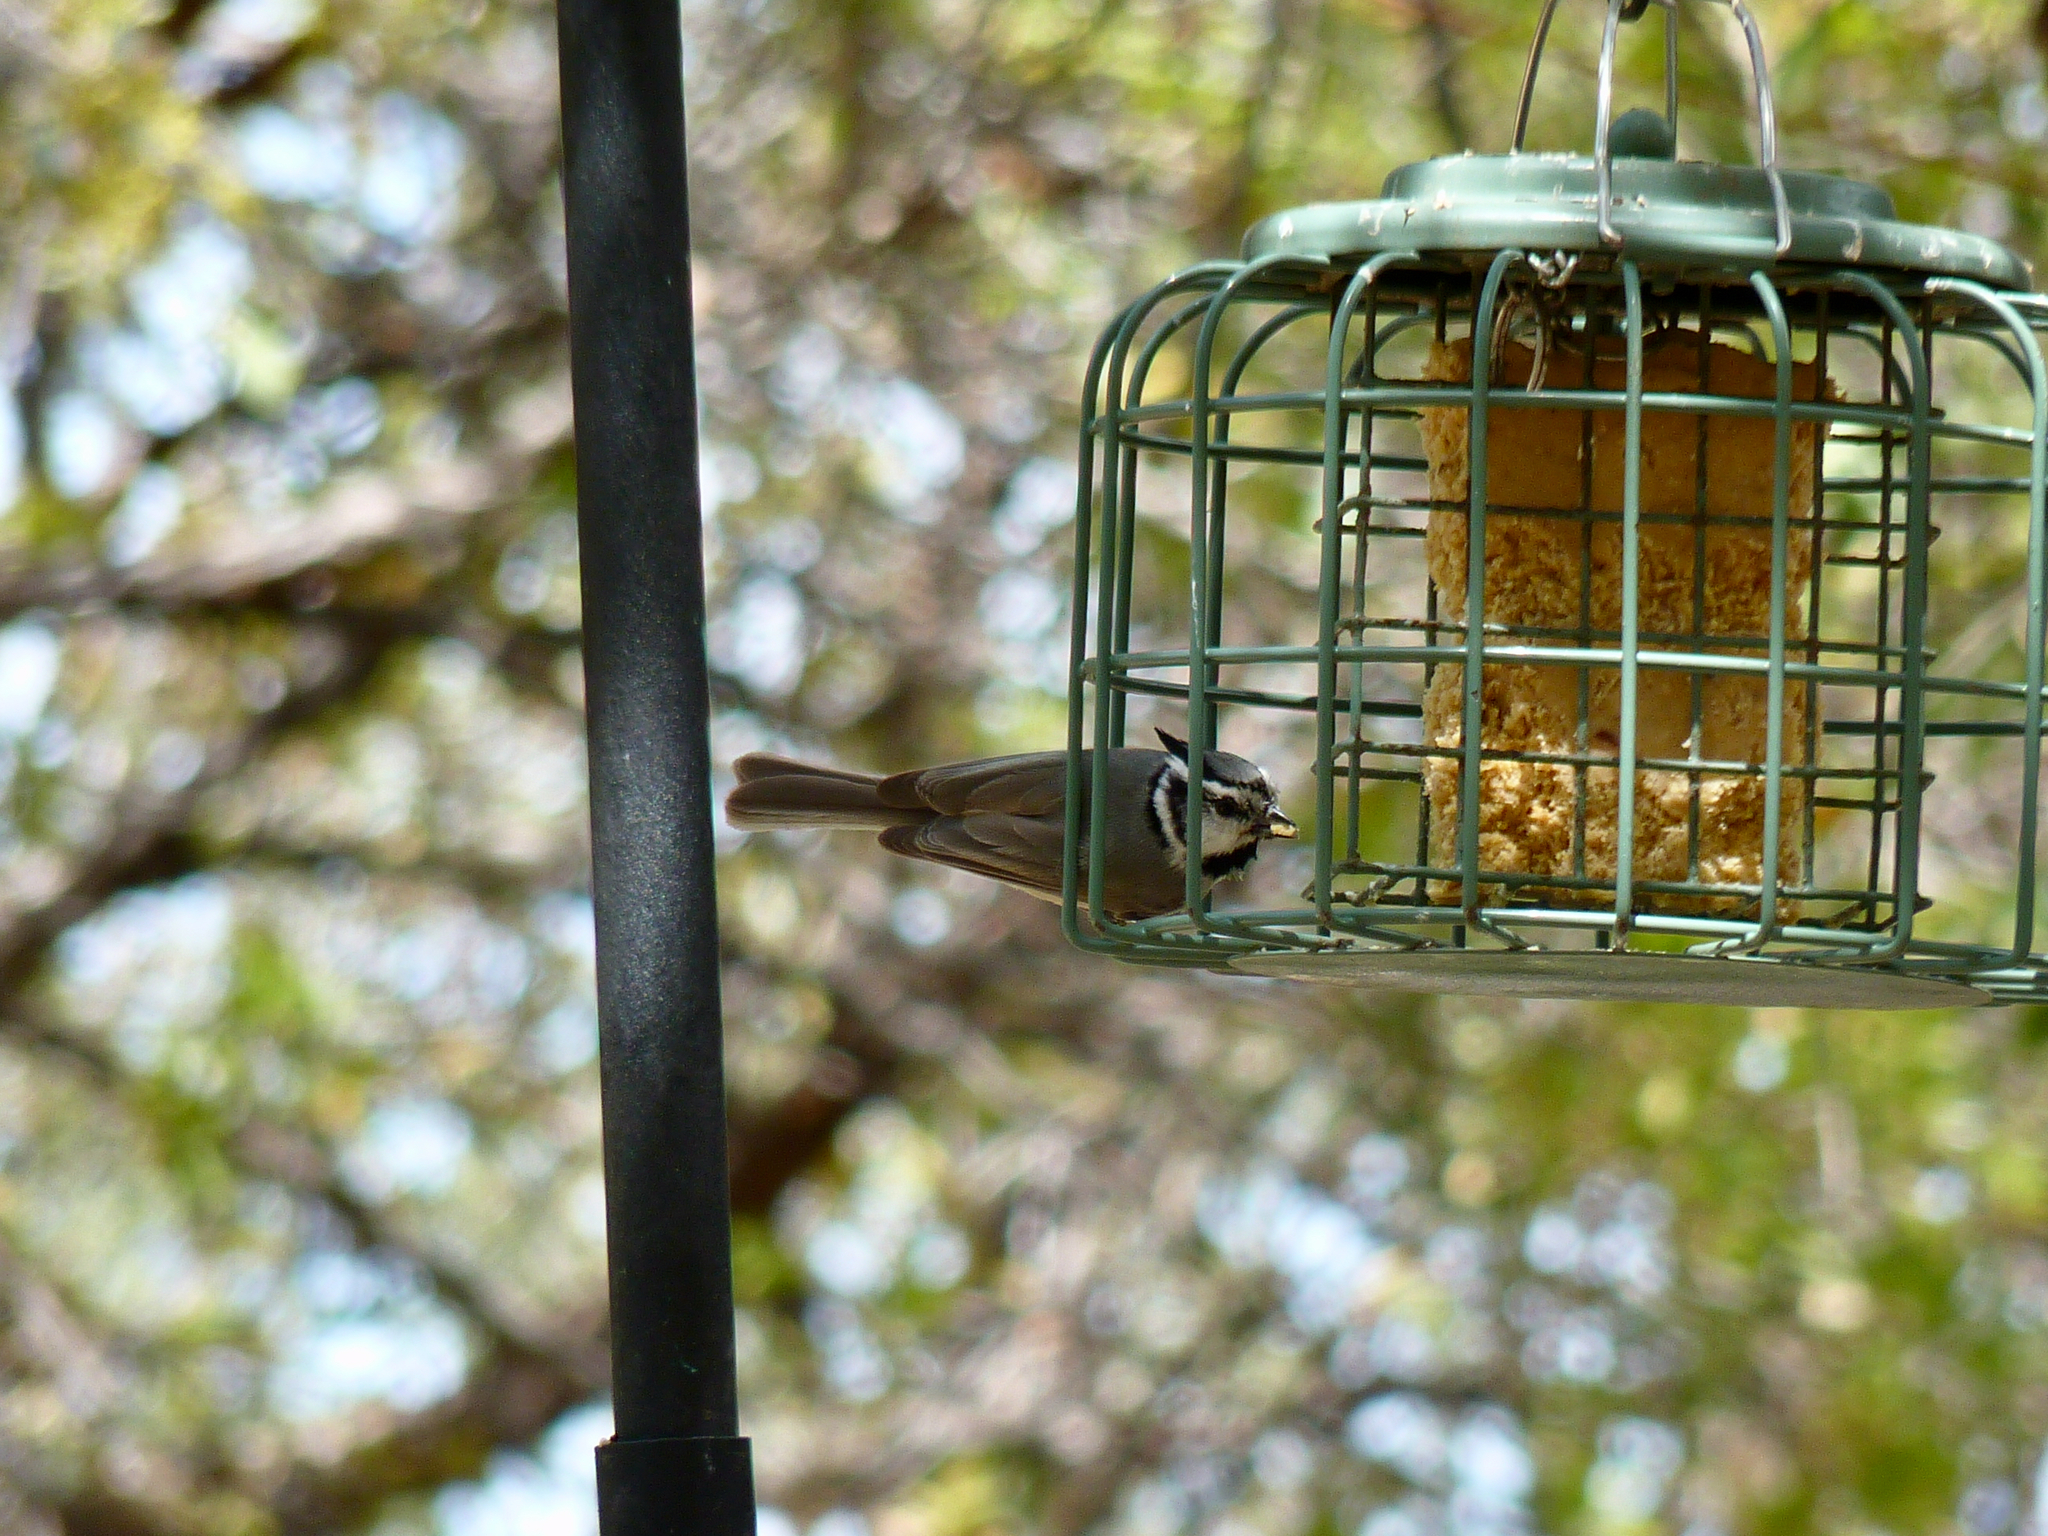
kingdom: Animalia
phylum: Chordata
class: Aves
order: Passeriformes
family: Paridae
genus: Baeolophus
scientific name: Baeolophus wollweberi
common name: Bridled titmouse
